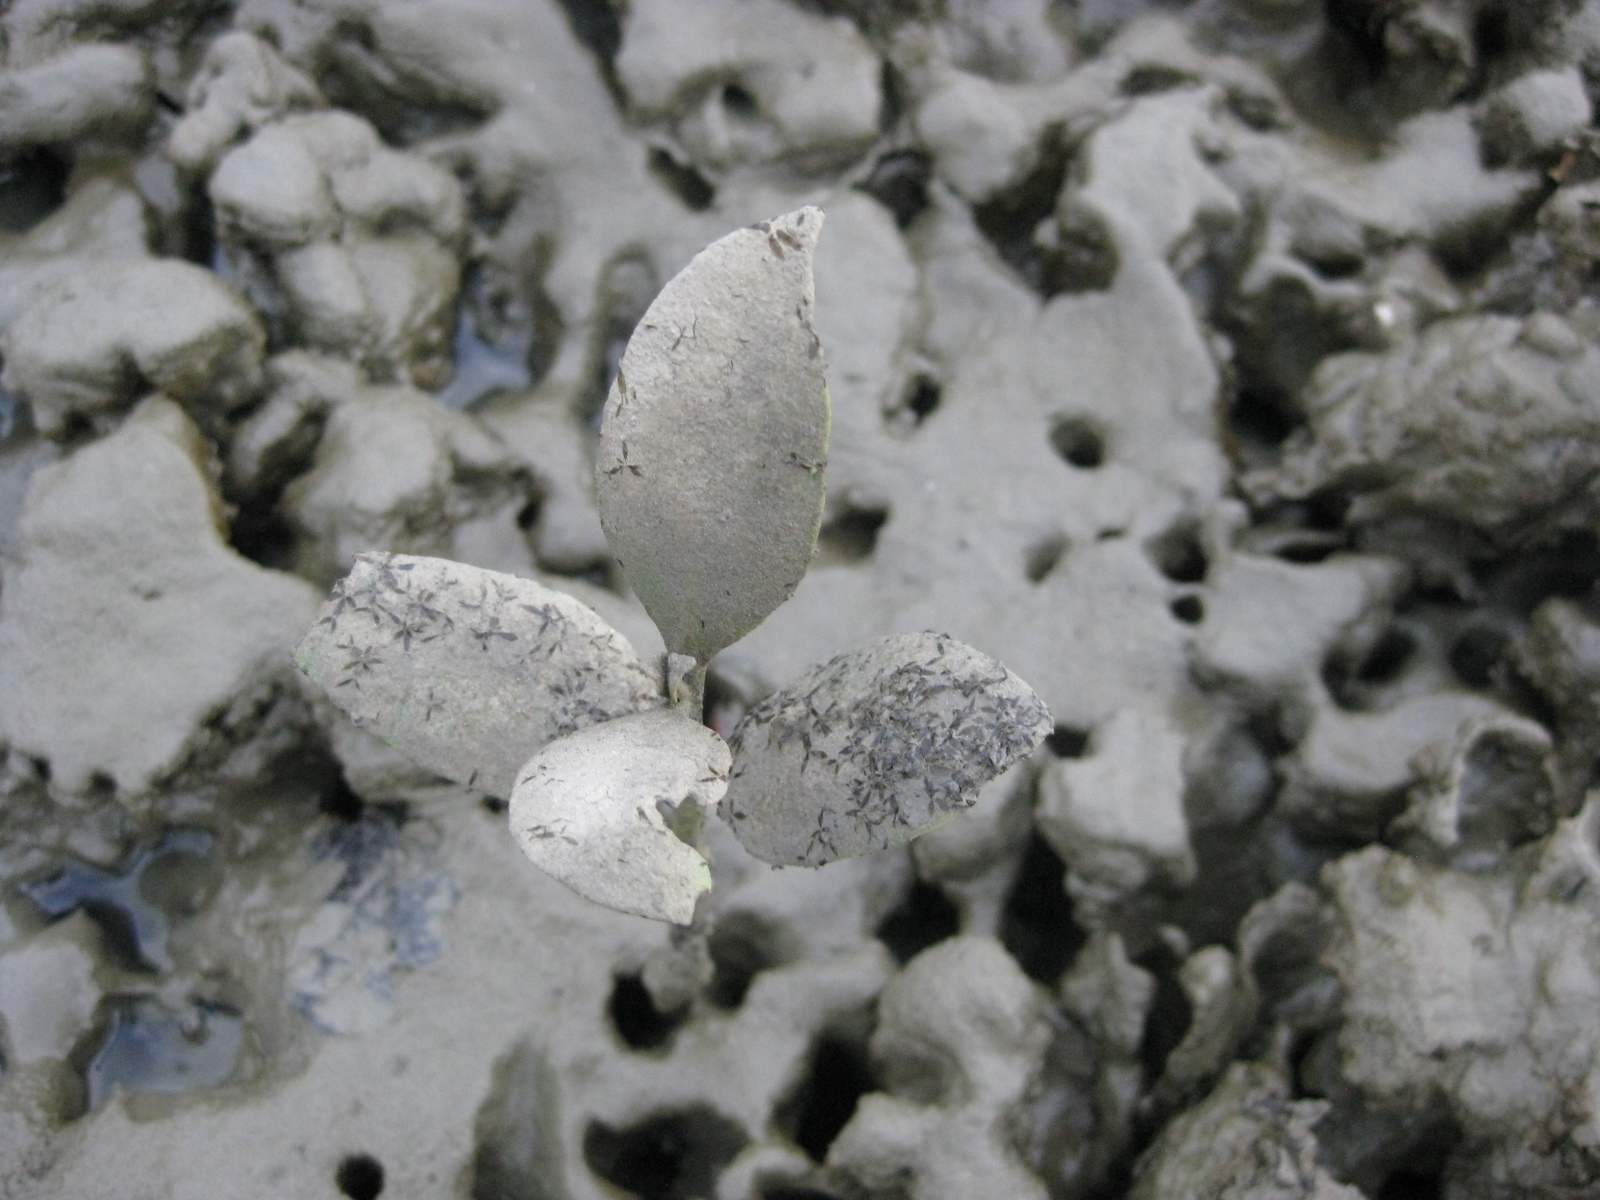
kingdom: Plantae
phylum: Tracheophyta
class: Magnoliopsida
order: Lamiales
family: Acanthaceae
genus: Avicennia
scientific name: Avicennia marina
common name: Gray mangrove
